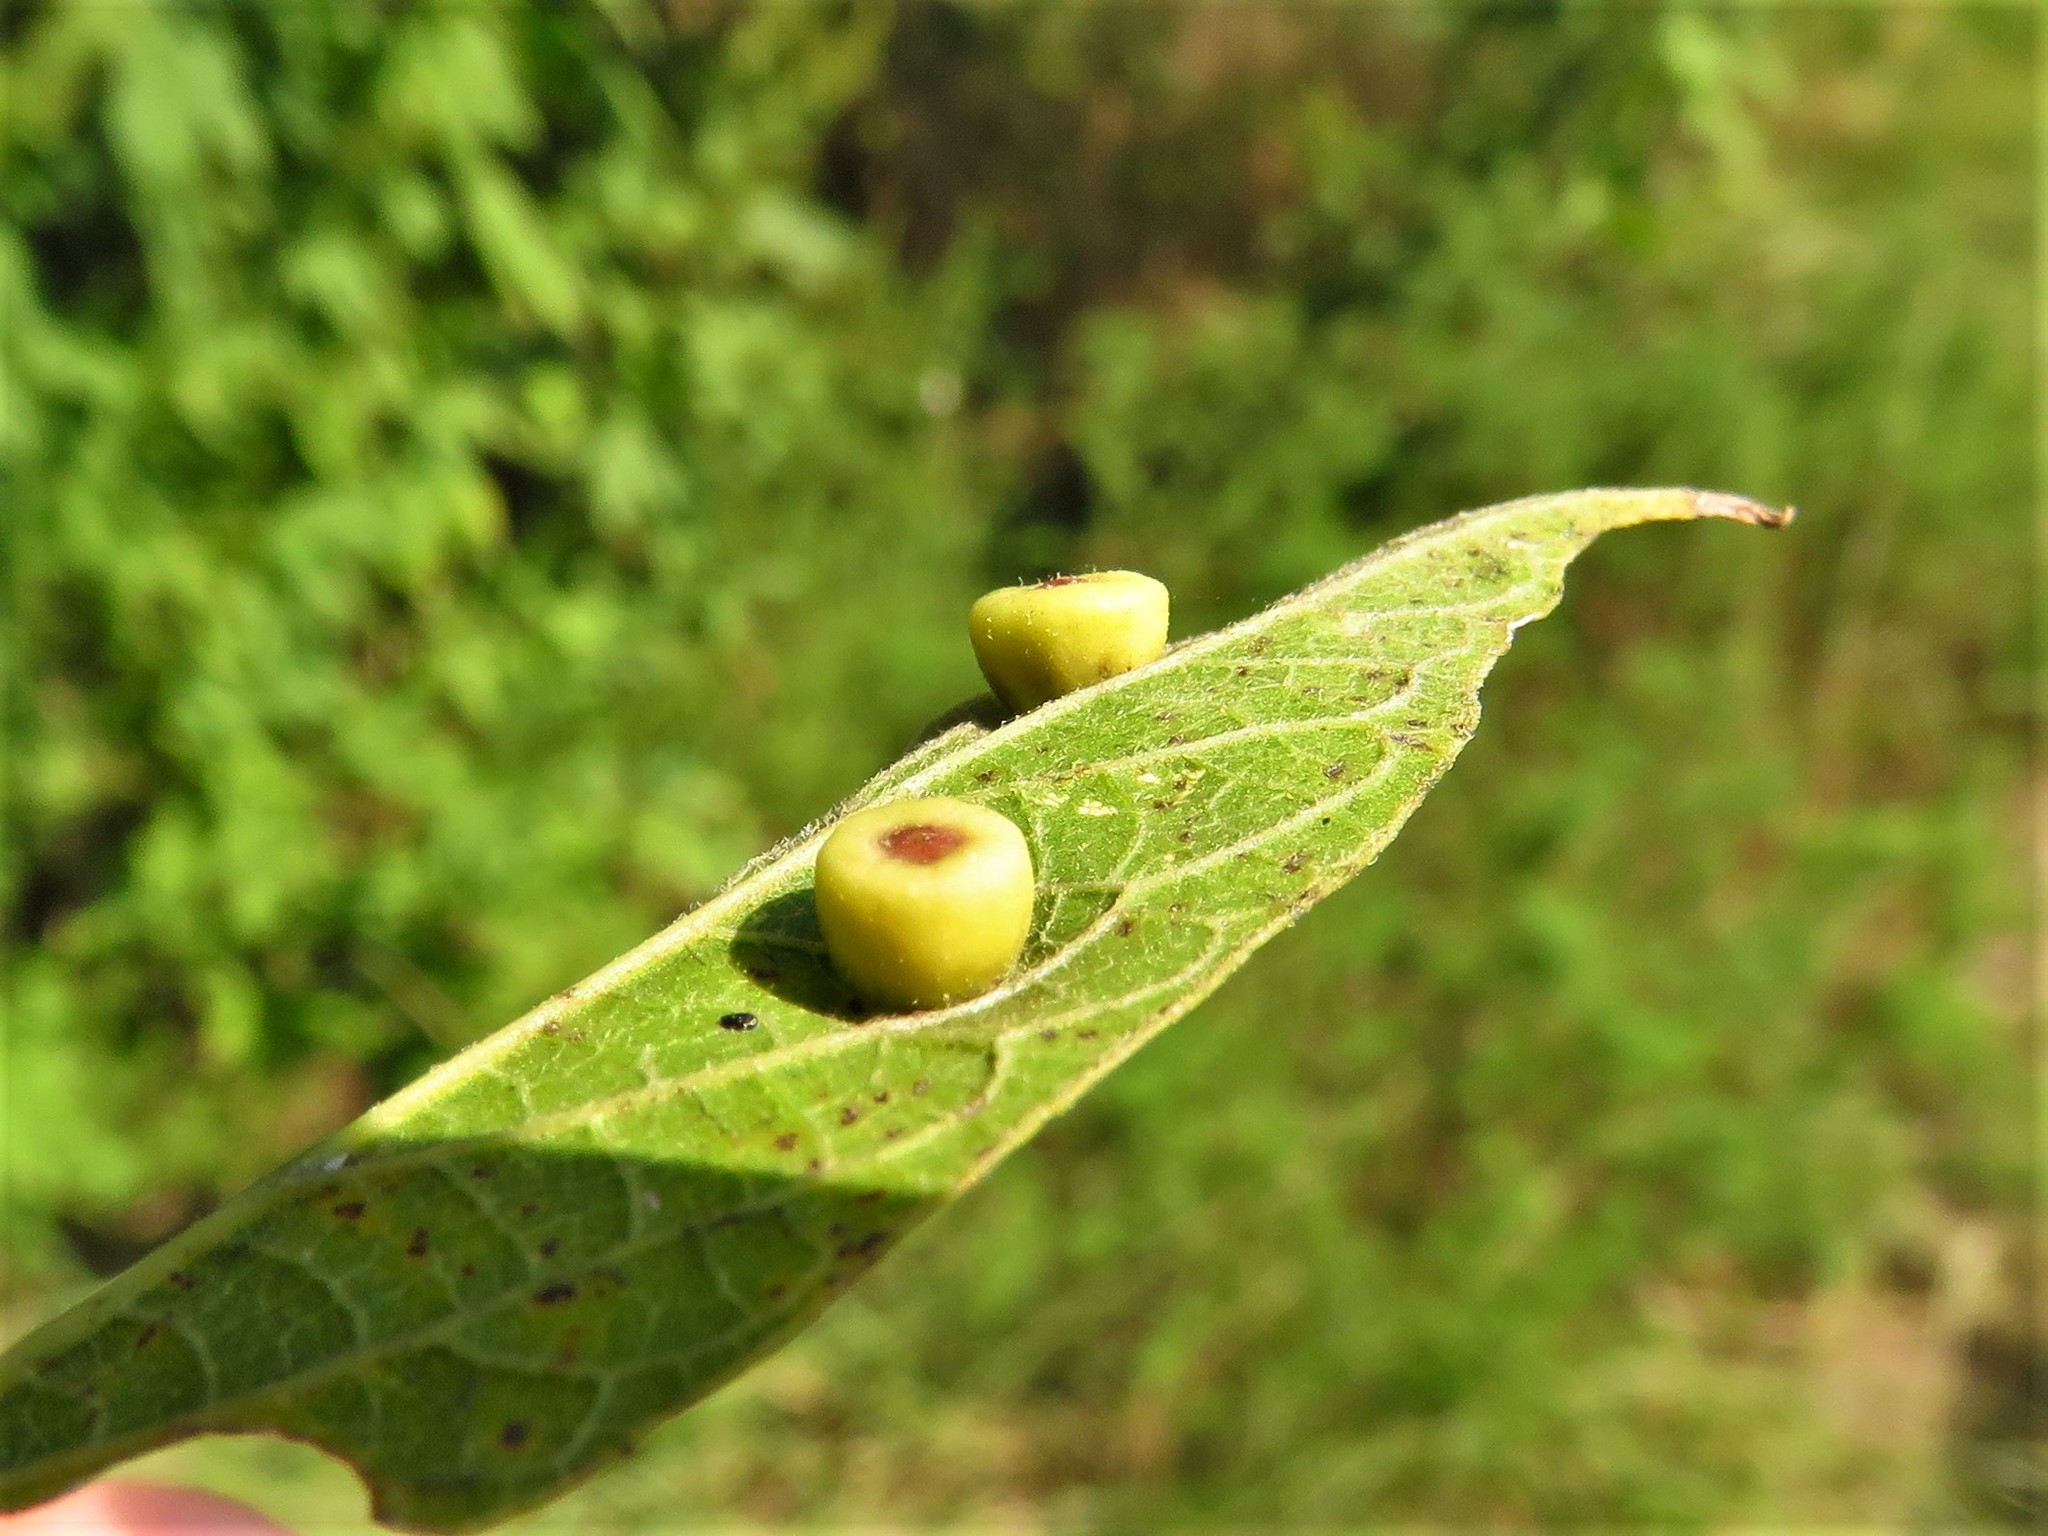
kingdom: Animalia
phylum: Arthropoda
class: Insecta
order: Hemiptera
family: Aphalaridae
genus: Pachypsylla
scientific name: Pachypsylla celtidismamma
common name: Hackberry nipplegall psyllid
